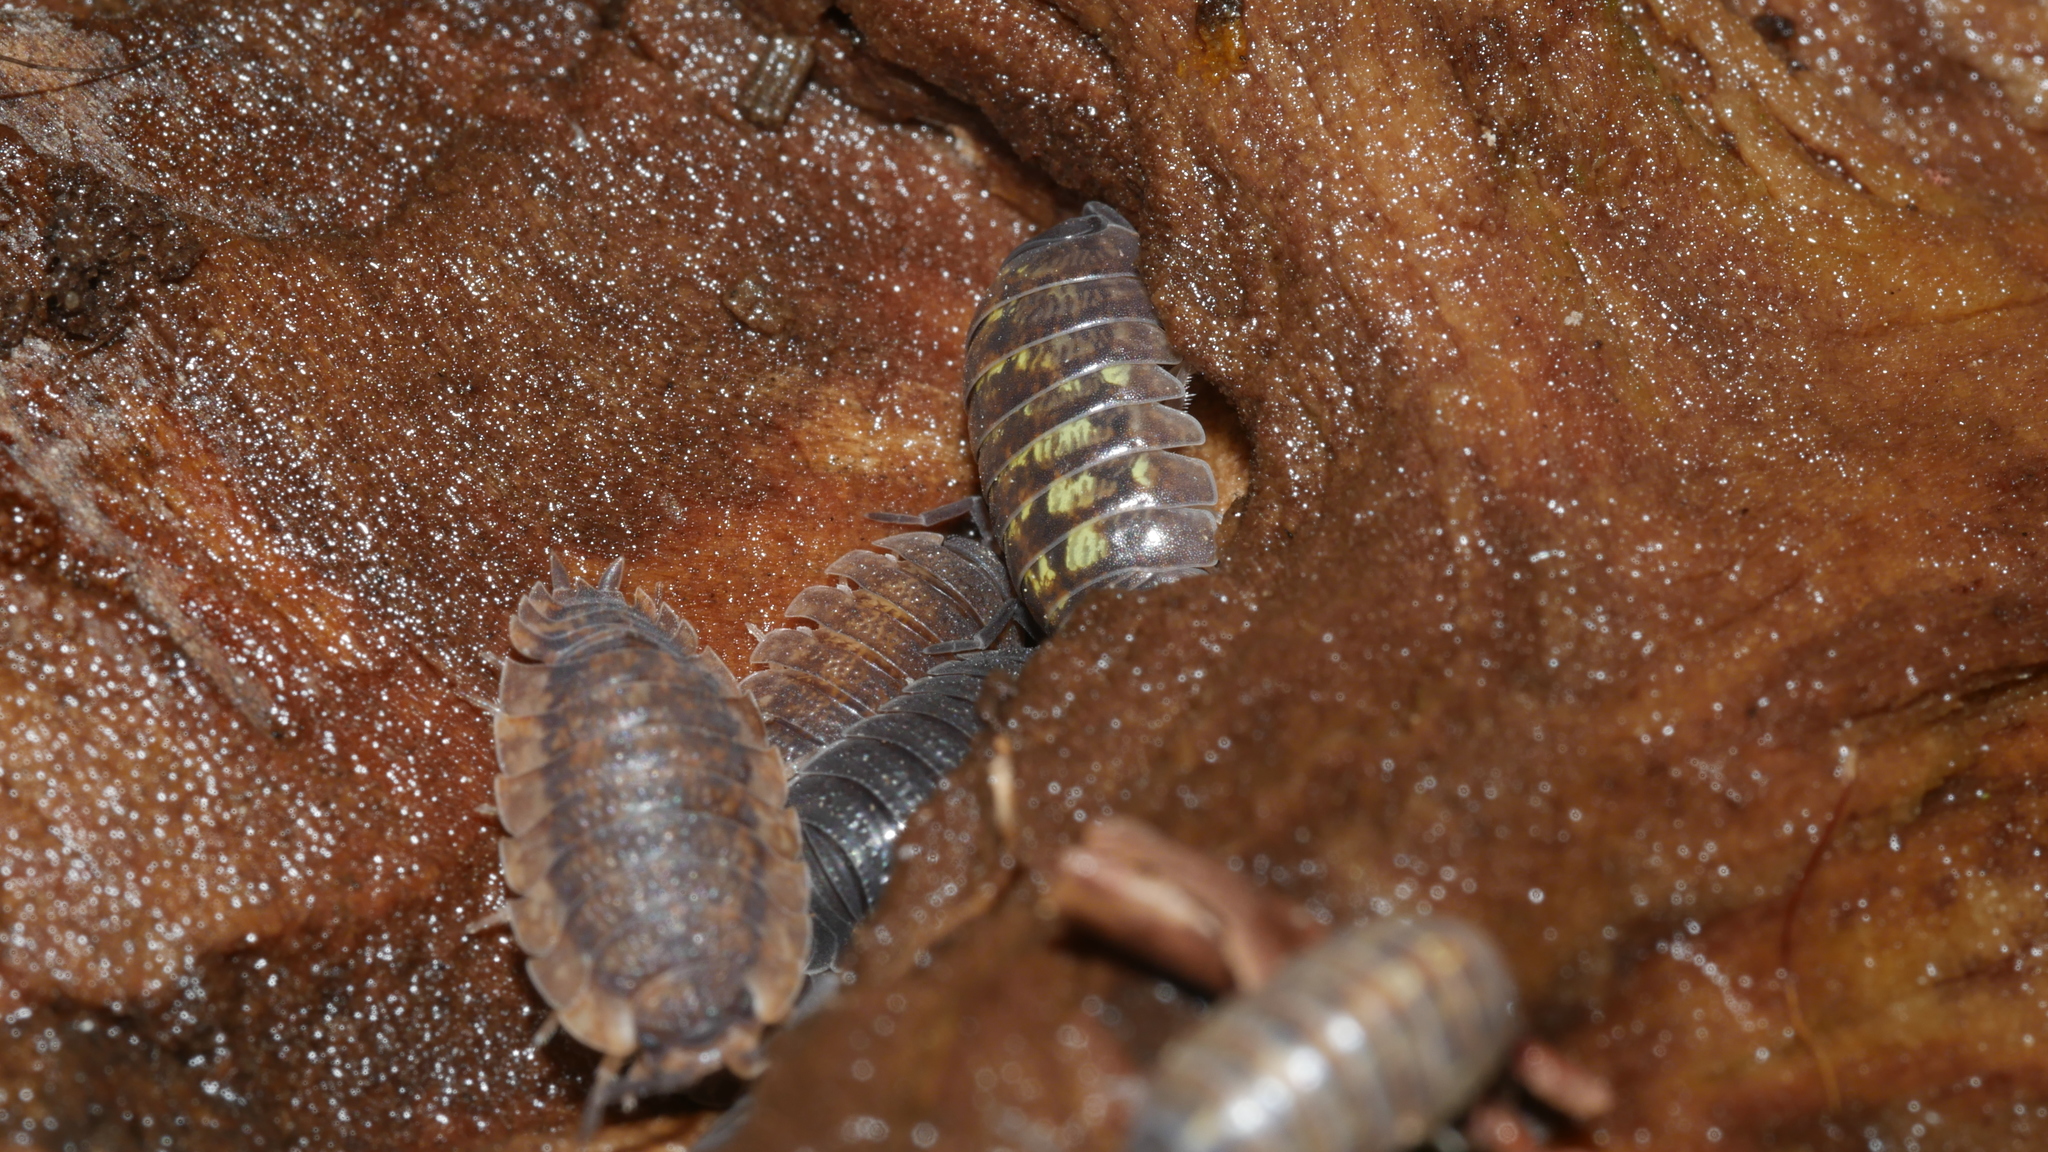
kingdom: Animalia
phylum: Arthropoda
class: Malacostraca
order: Isopoda
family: Armadillidiidae
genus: Armadillidium
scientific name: Armadillidium vulgare
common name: Common pill woodlouse
